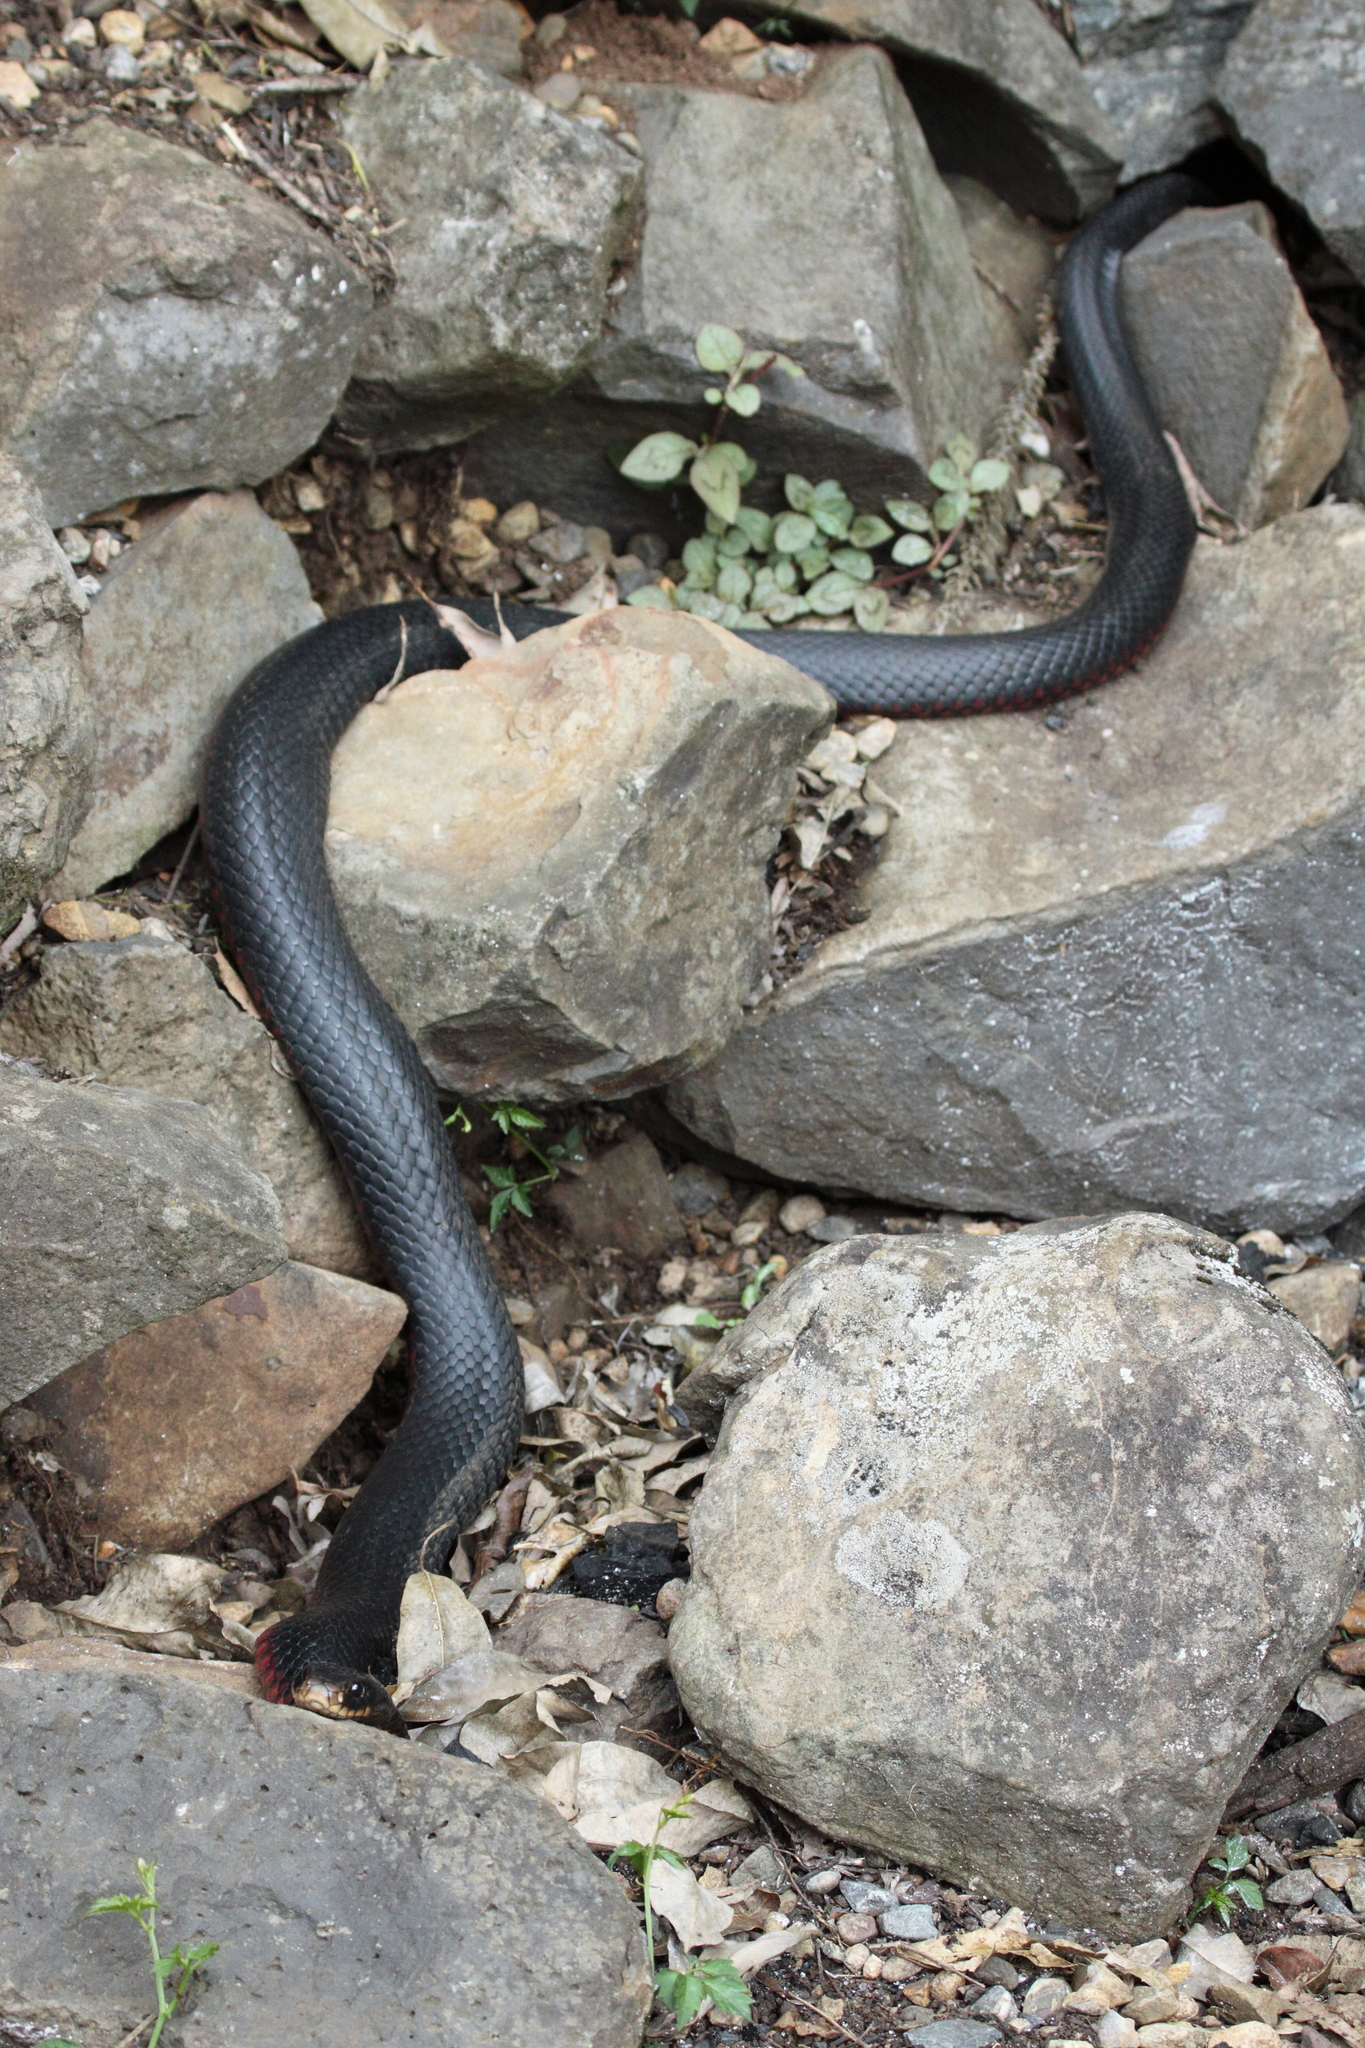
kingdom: Animalia
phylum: Chordata
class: Squamata
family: Elapidae
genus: Pseudechis
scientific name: Pseudechis porphyriacus
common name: Australian black snake
